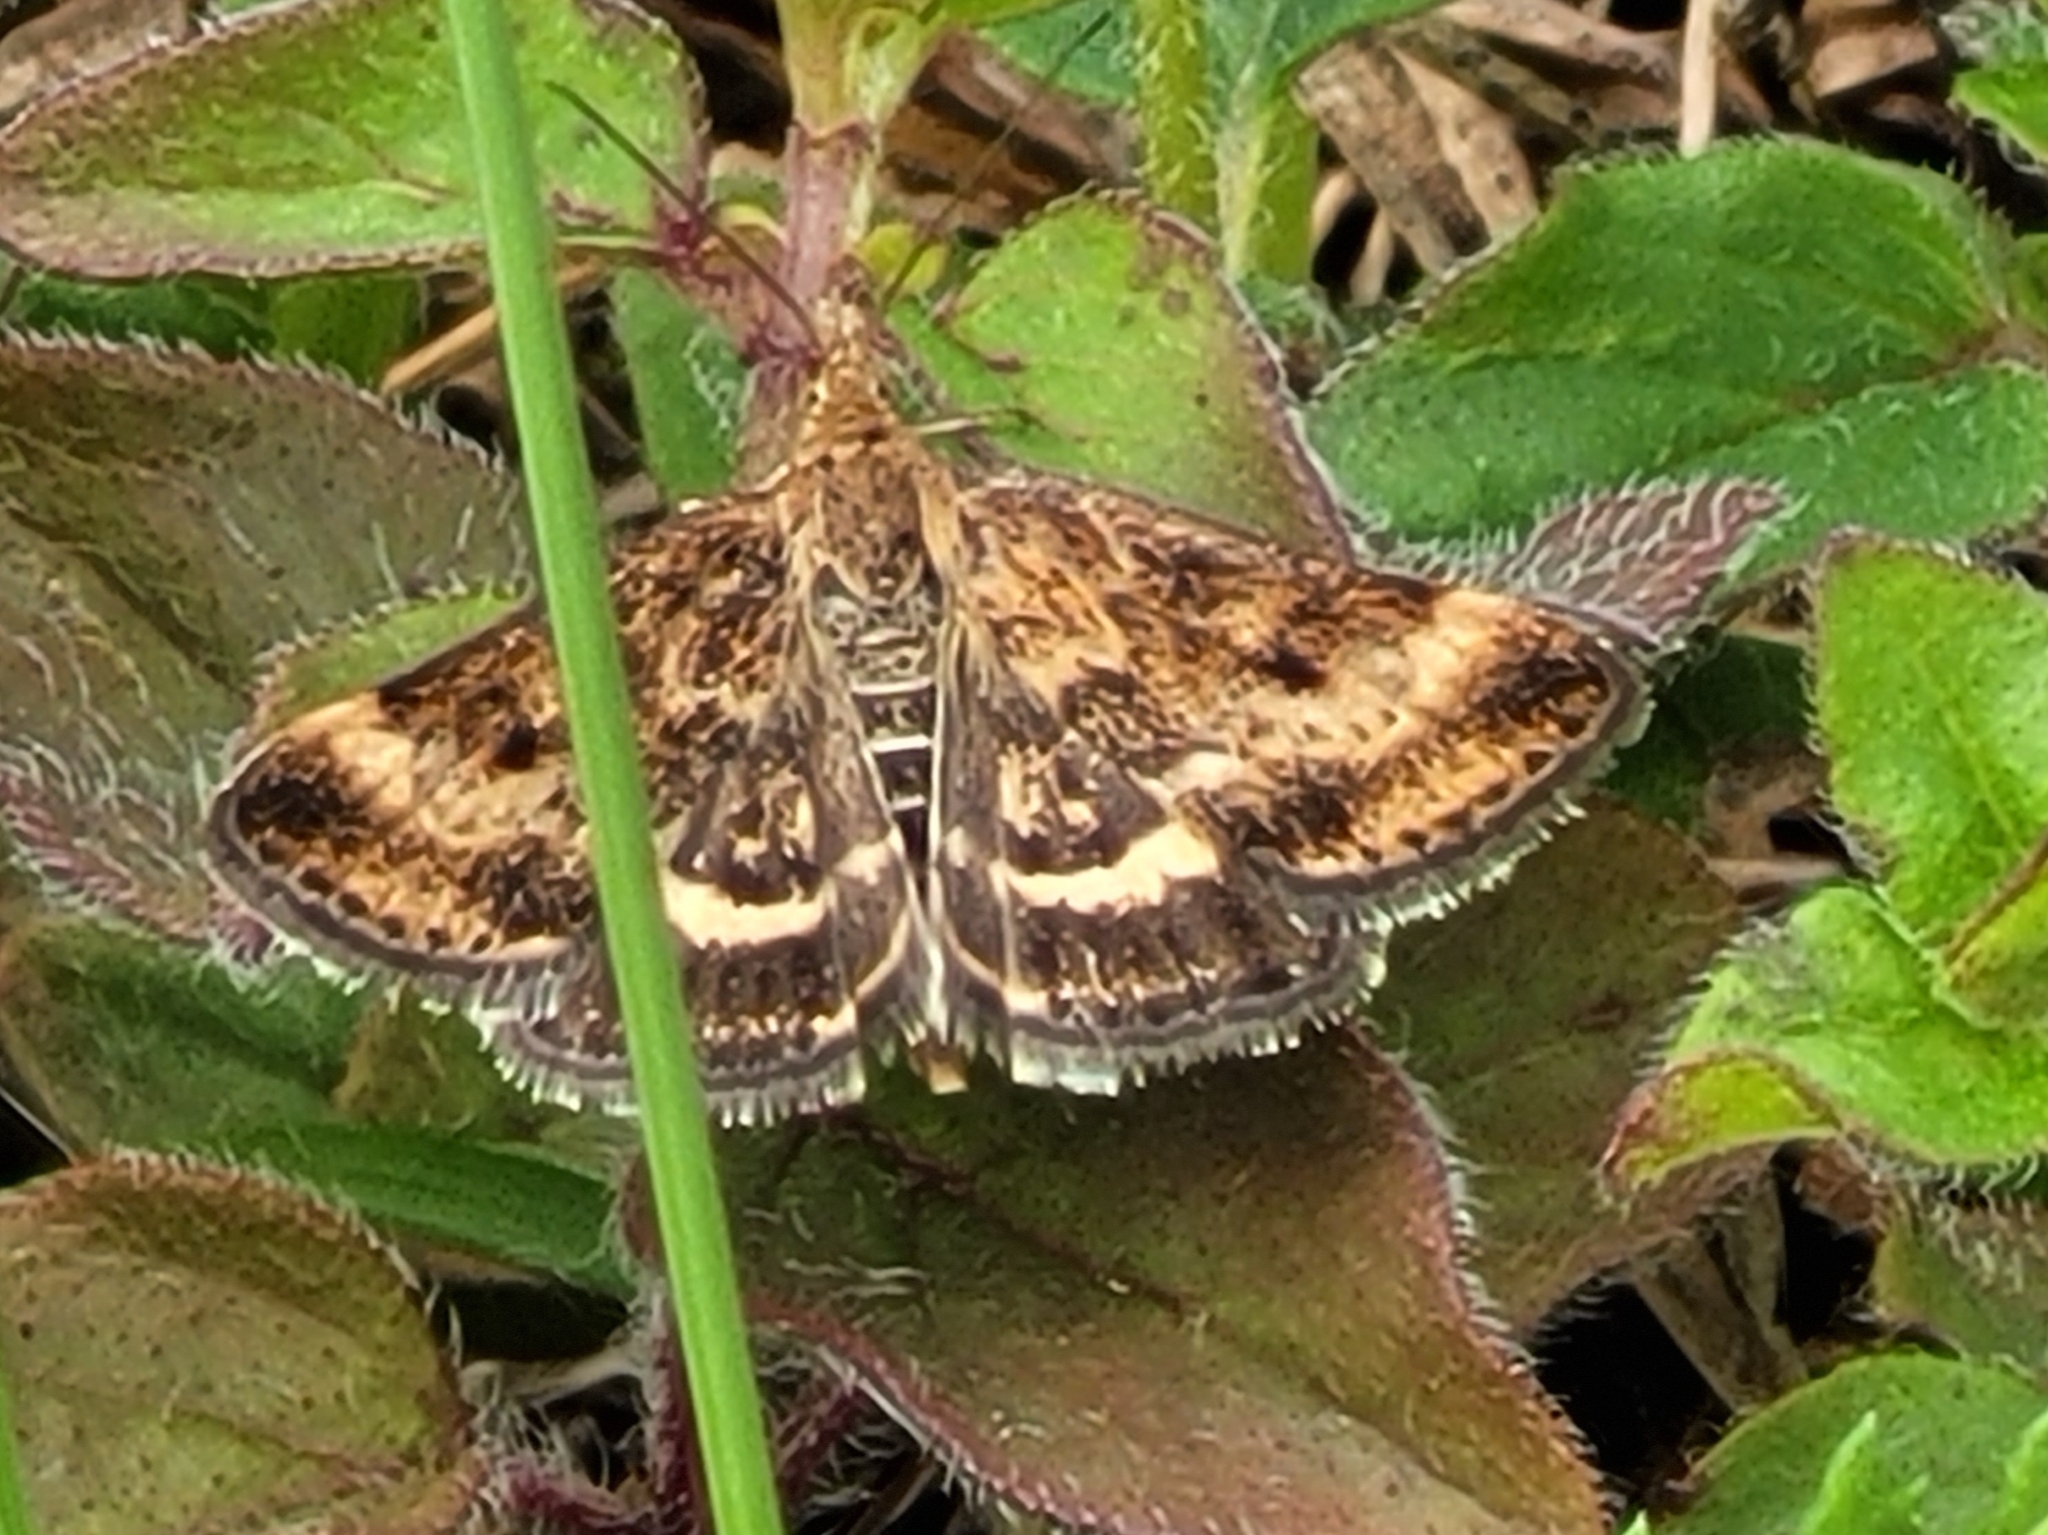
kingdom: Animalia
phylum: Arthropoda
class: Insecta
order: Lepidoptera
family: Crambidae
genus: Pyrausta
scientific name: Pyrausta despicata
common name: Straw-barred pearl
